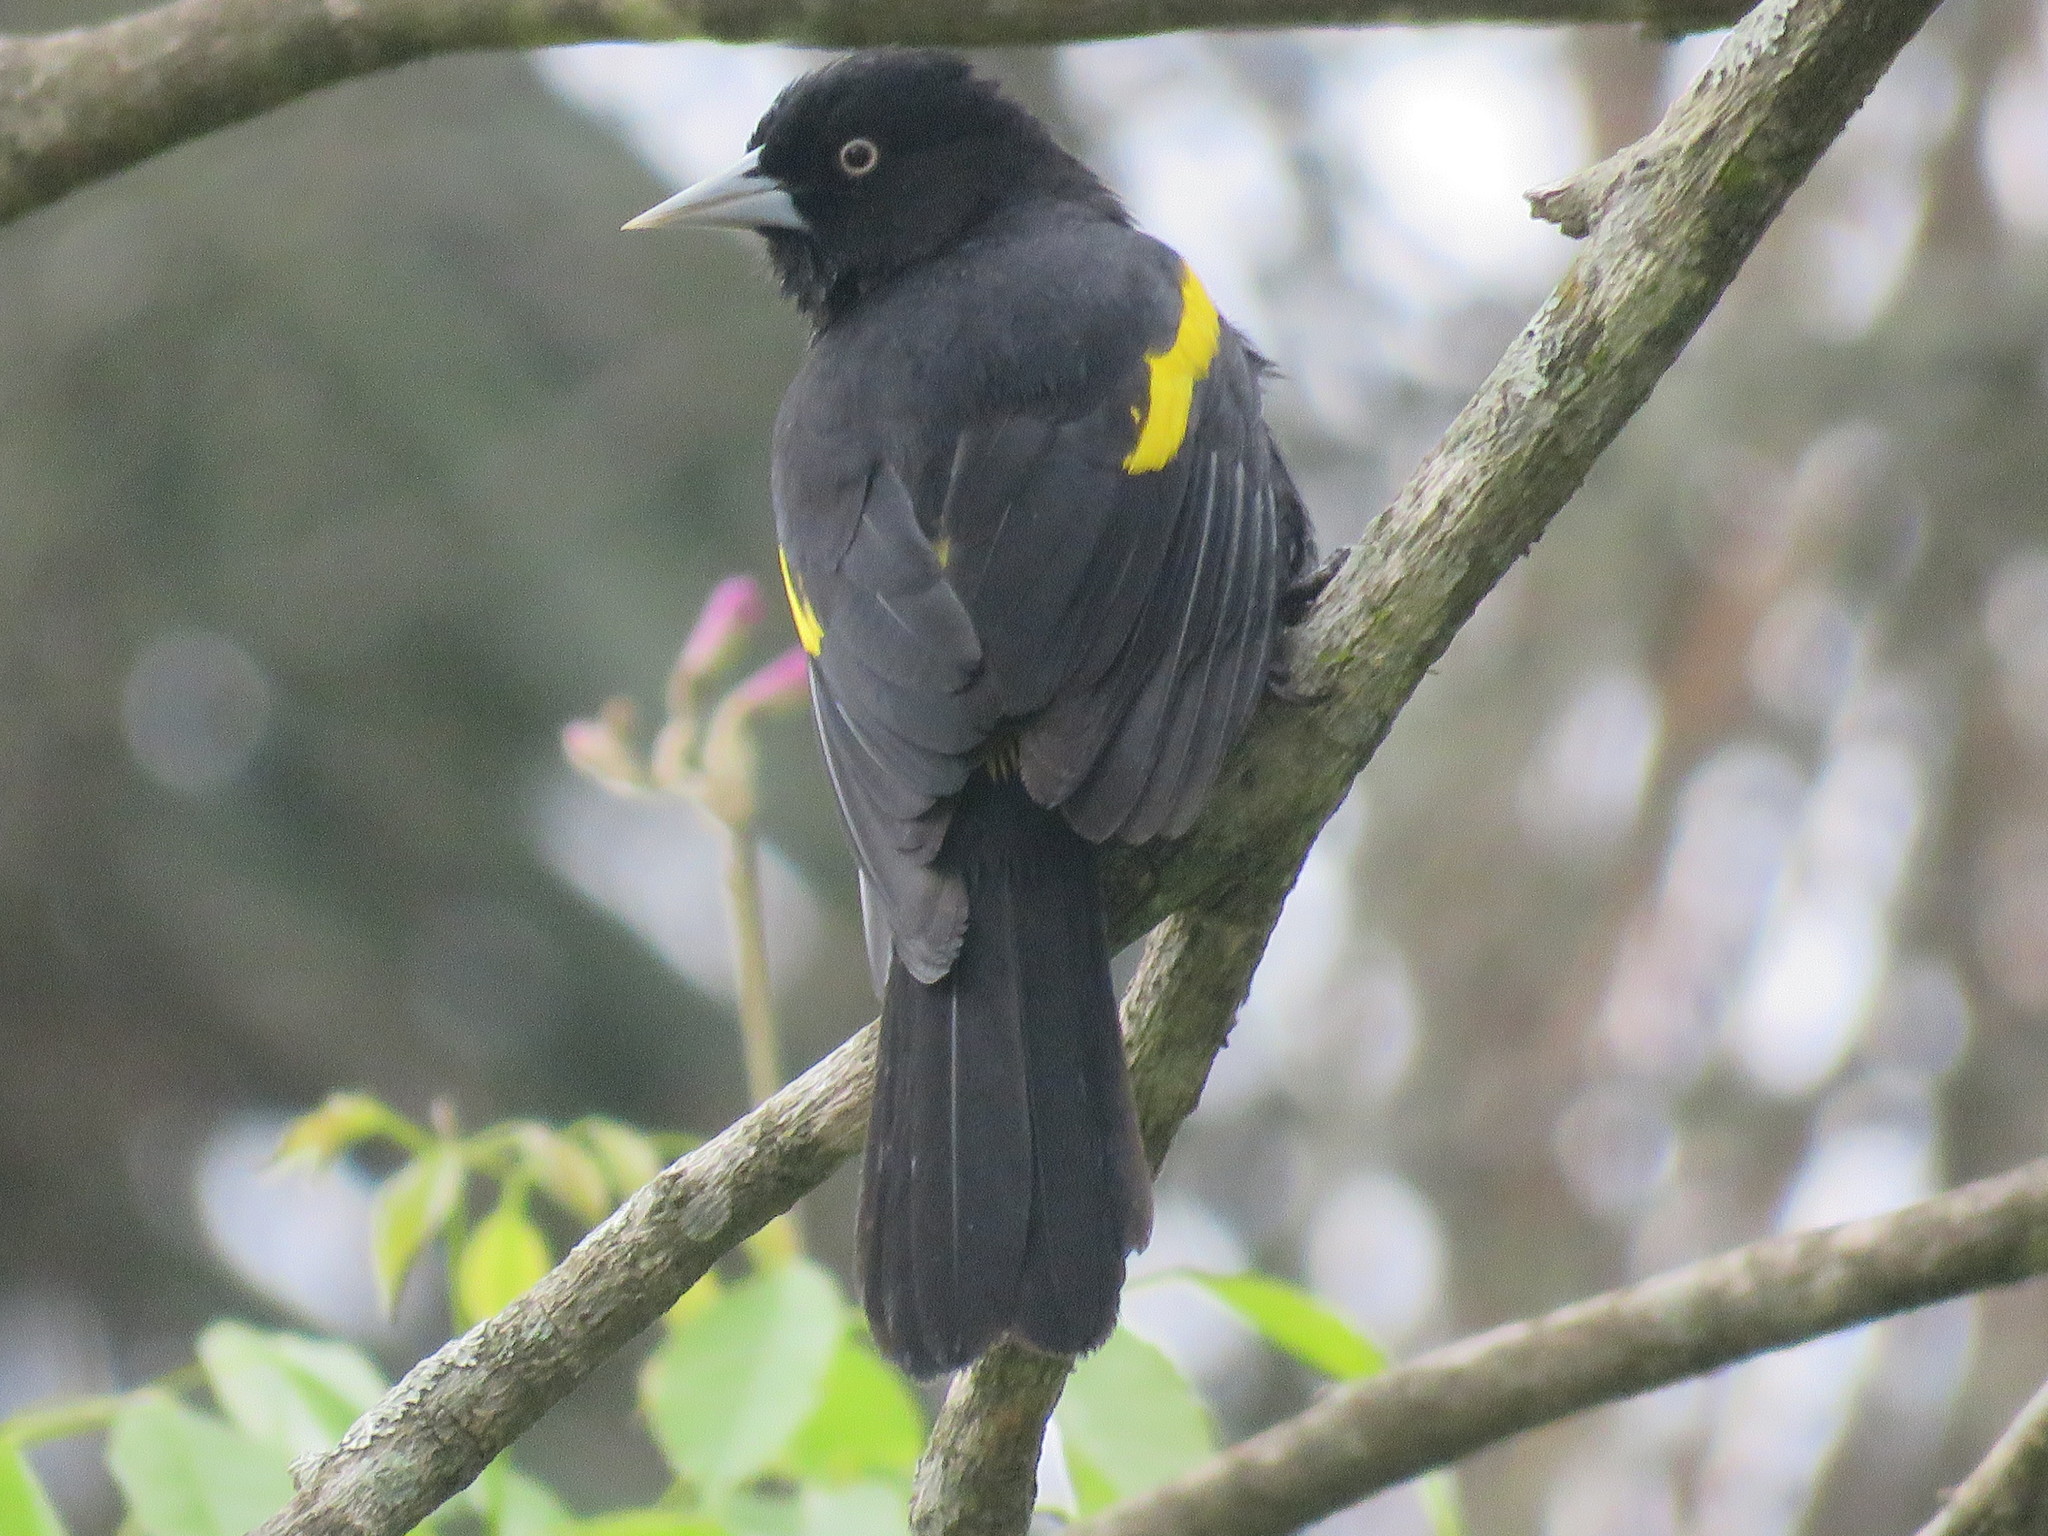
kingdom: Animalia
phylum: Chordata
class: Aves
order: Passeriformes
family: Icteridae
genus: Cacicus
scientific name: Cacicus chrysopterus
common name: Golden-winged cacique
